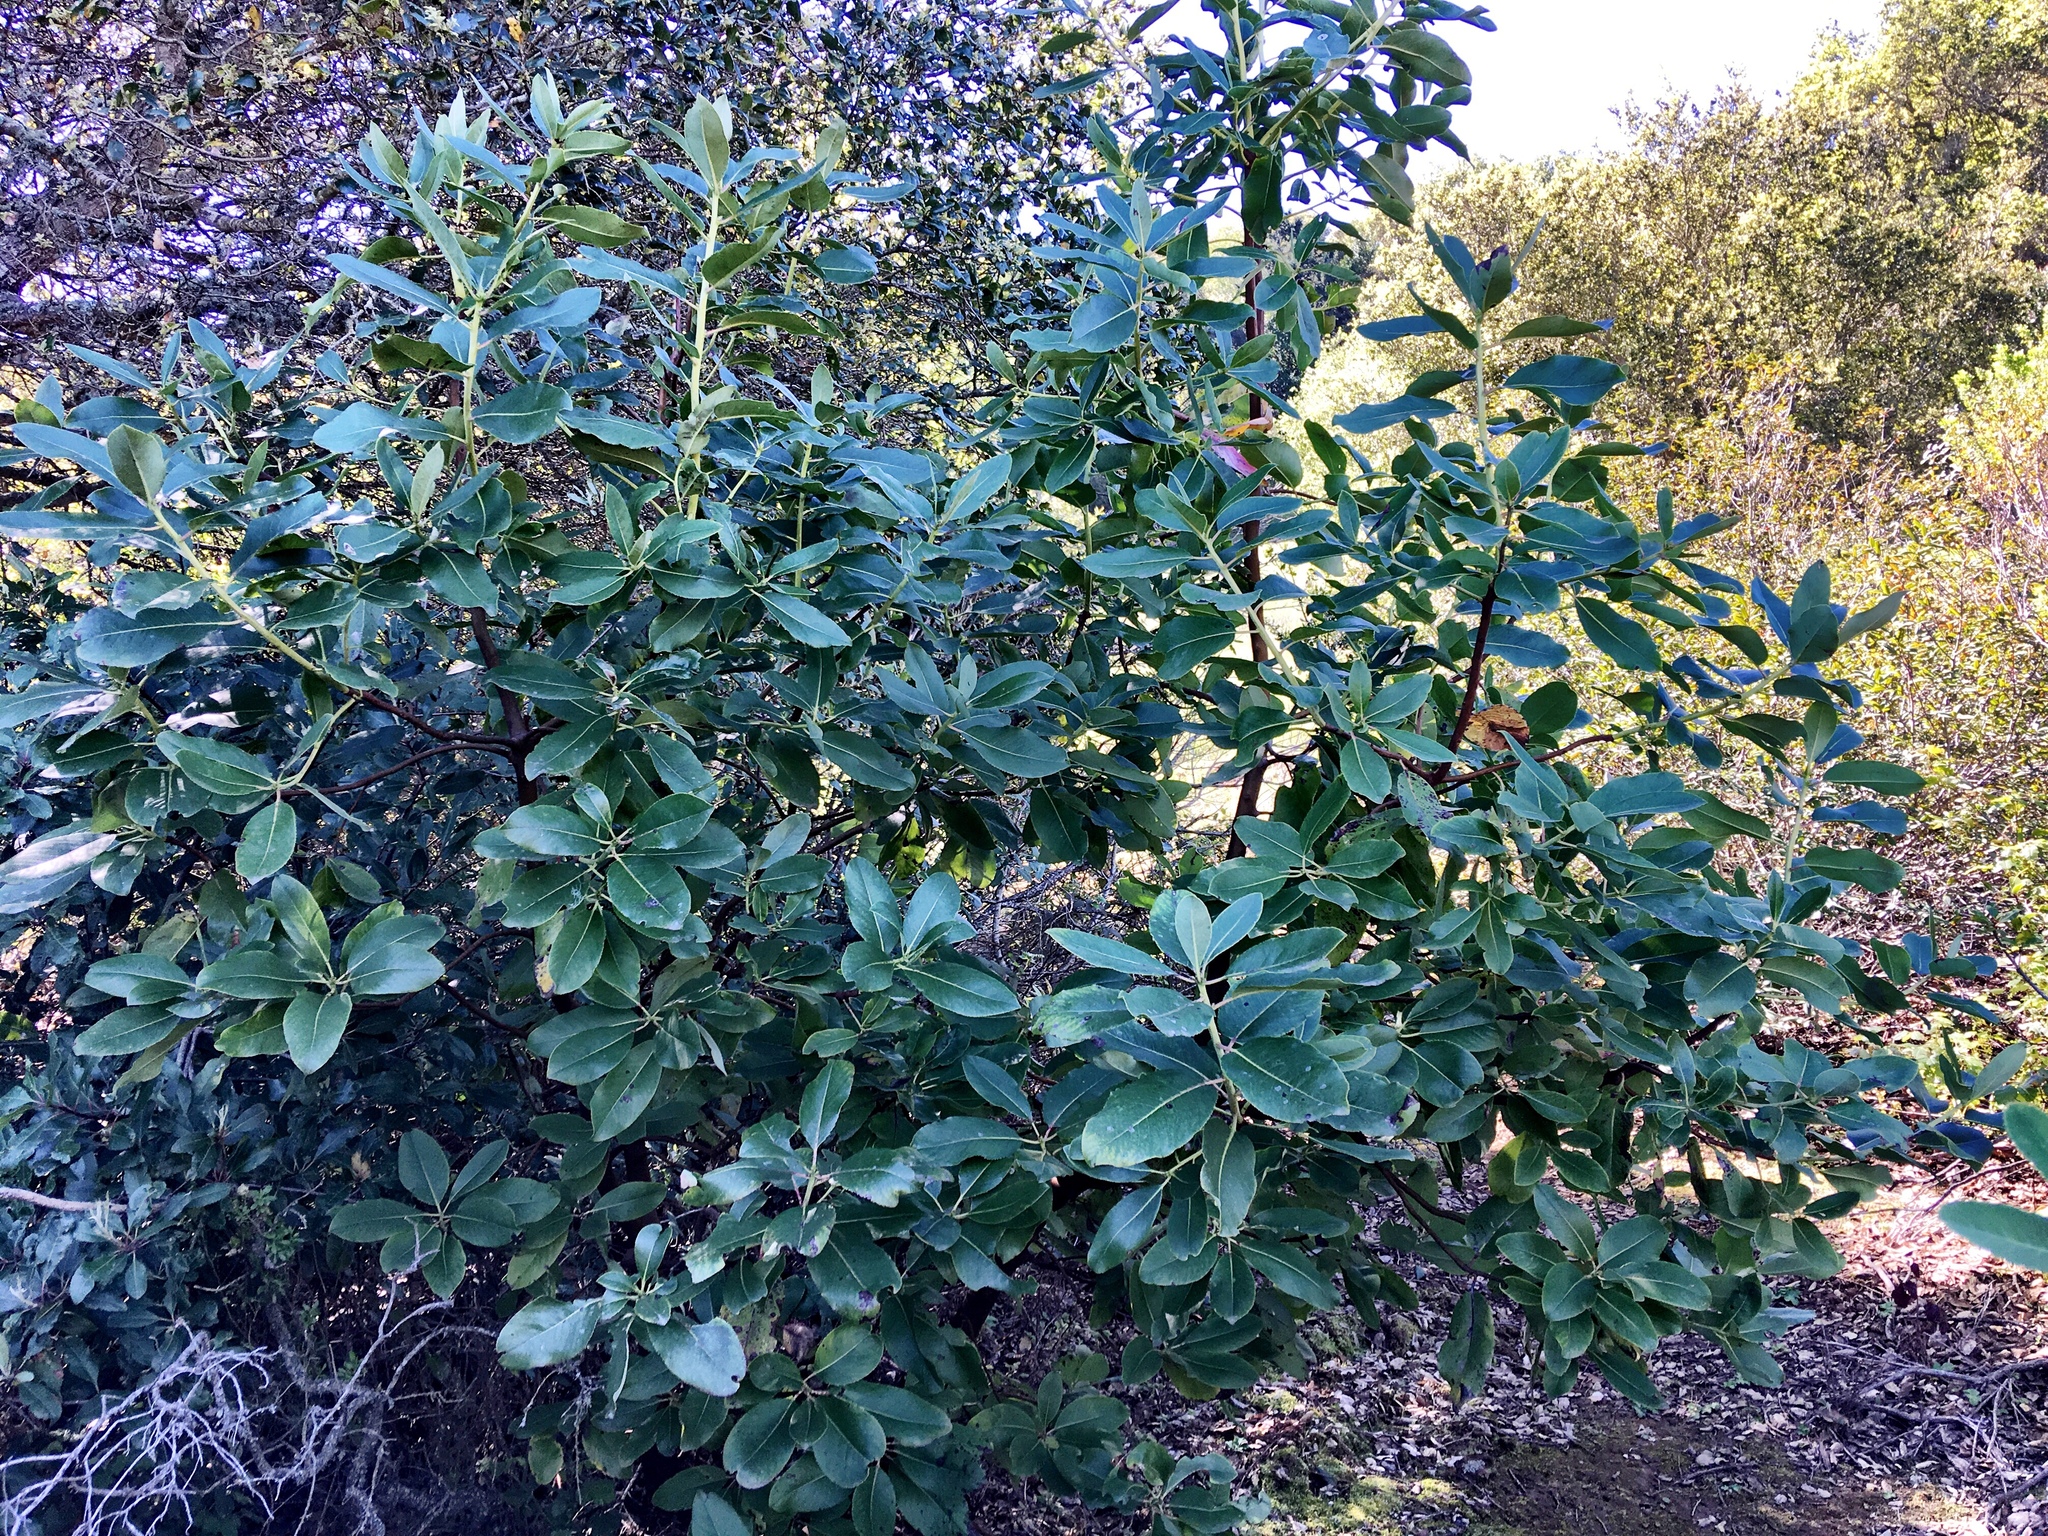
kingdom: Plantae
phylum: Tracheophyta
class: Magnoliopsida
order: Ericales
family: Ericaceae
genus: Arbutus
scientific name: Arbutus menziesii
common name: Pacific madrone
